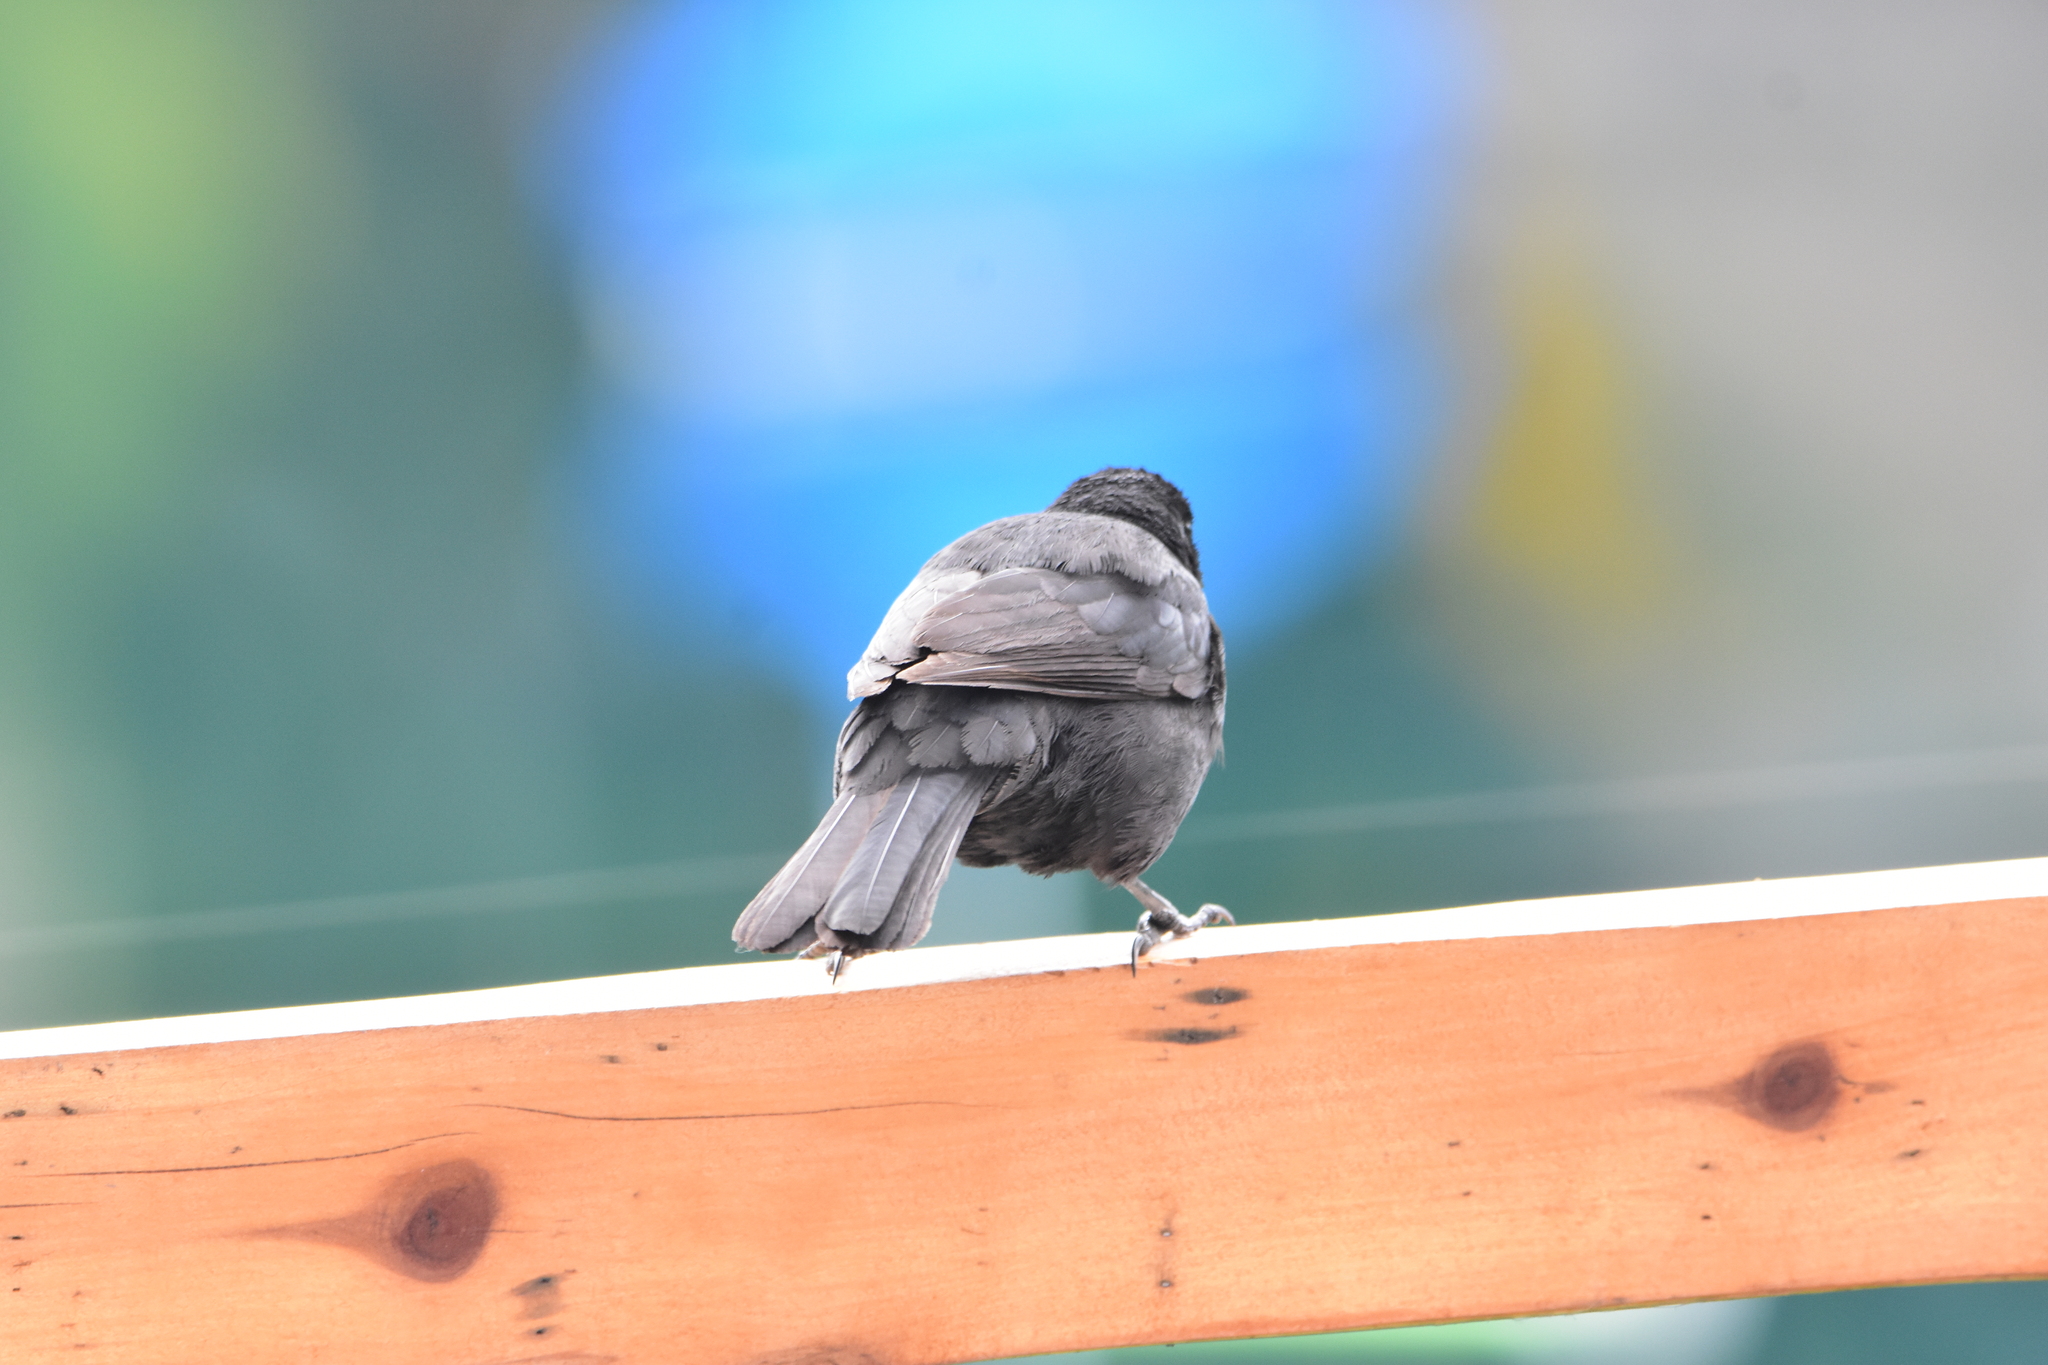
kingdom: Animalia
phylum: Chordata
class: Aves
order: Passeriformes
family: Icteridae
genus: Curaeus
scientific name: Curaeus curaeus
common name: Austral blackbird
